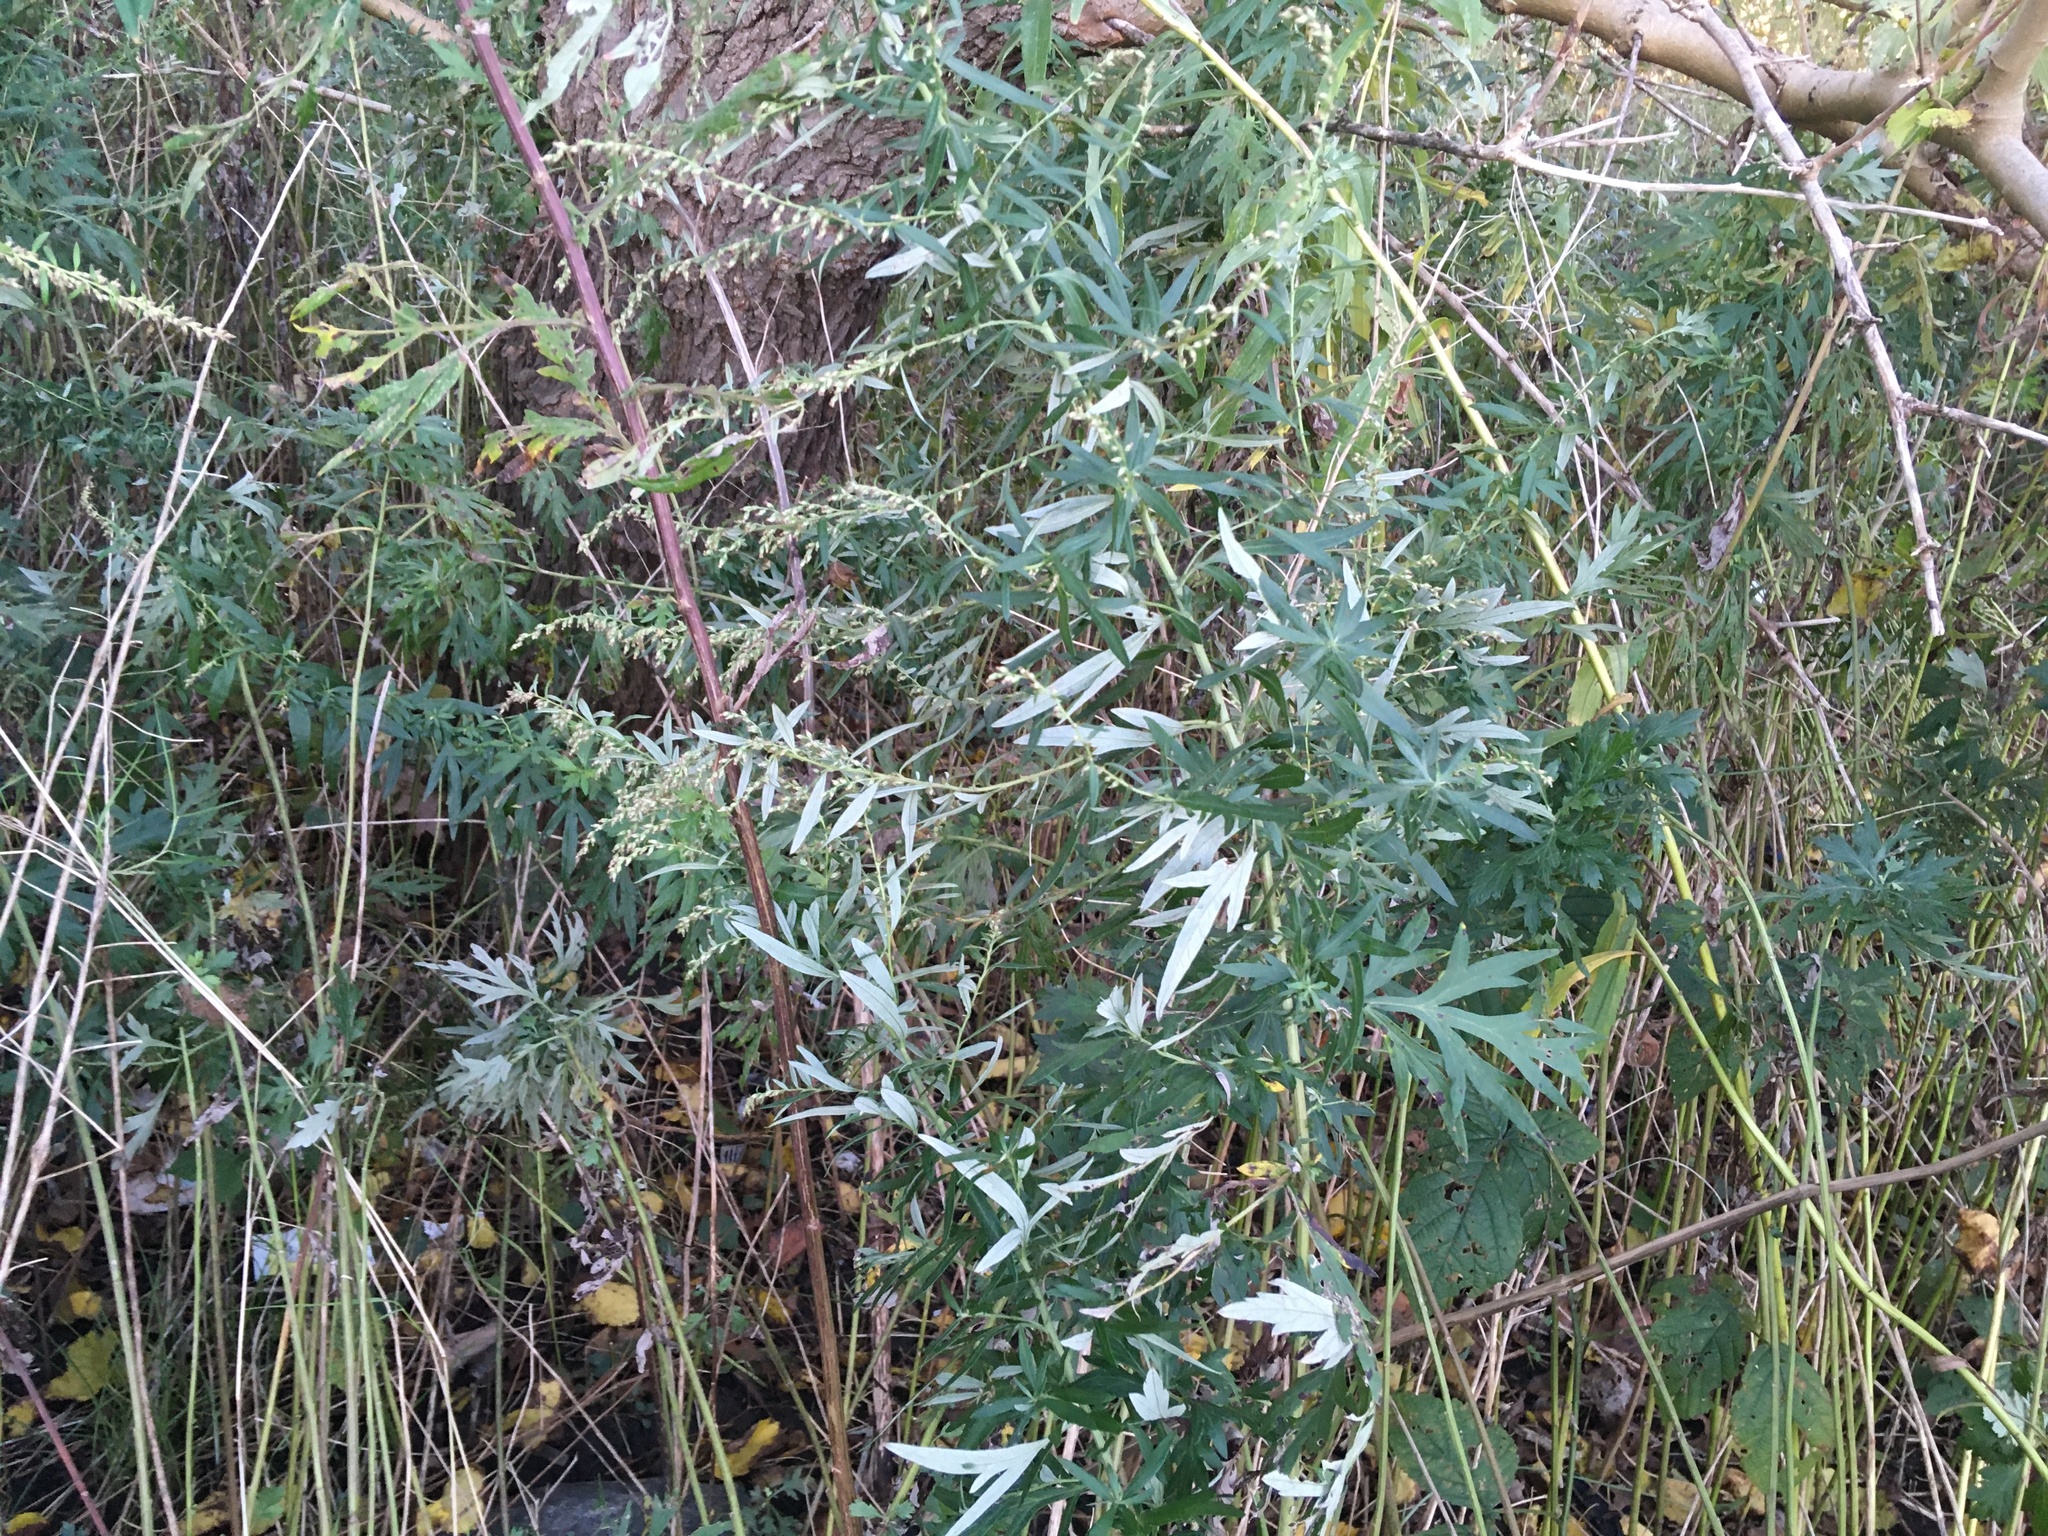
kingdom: Plantae
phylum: Tracheophyta
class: Magnoliopsida
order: Asterales
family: Asteraceae
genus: Artemisia
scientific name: Artemisia vulgaris
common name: Mugwort
